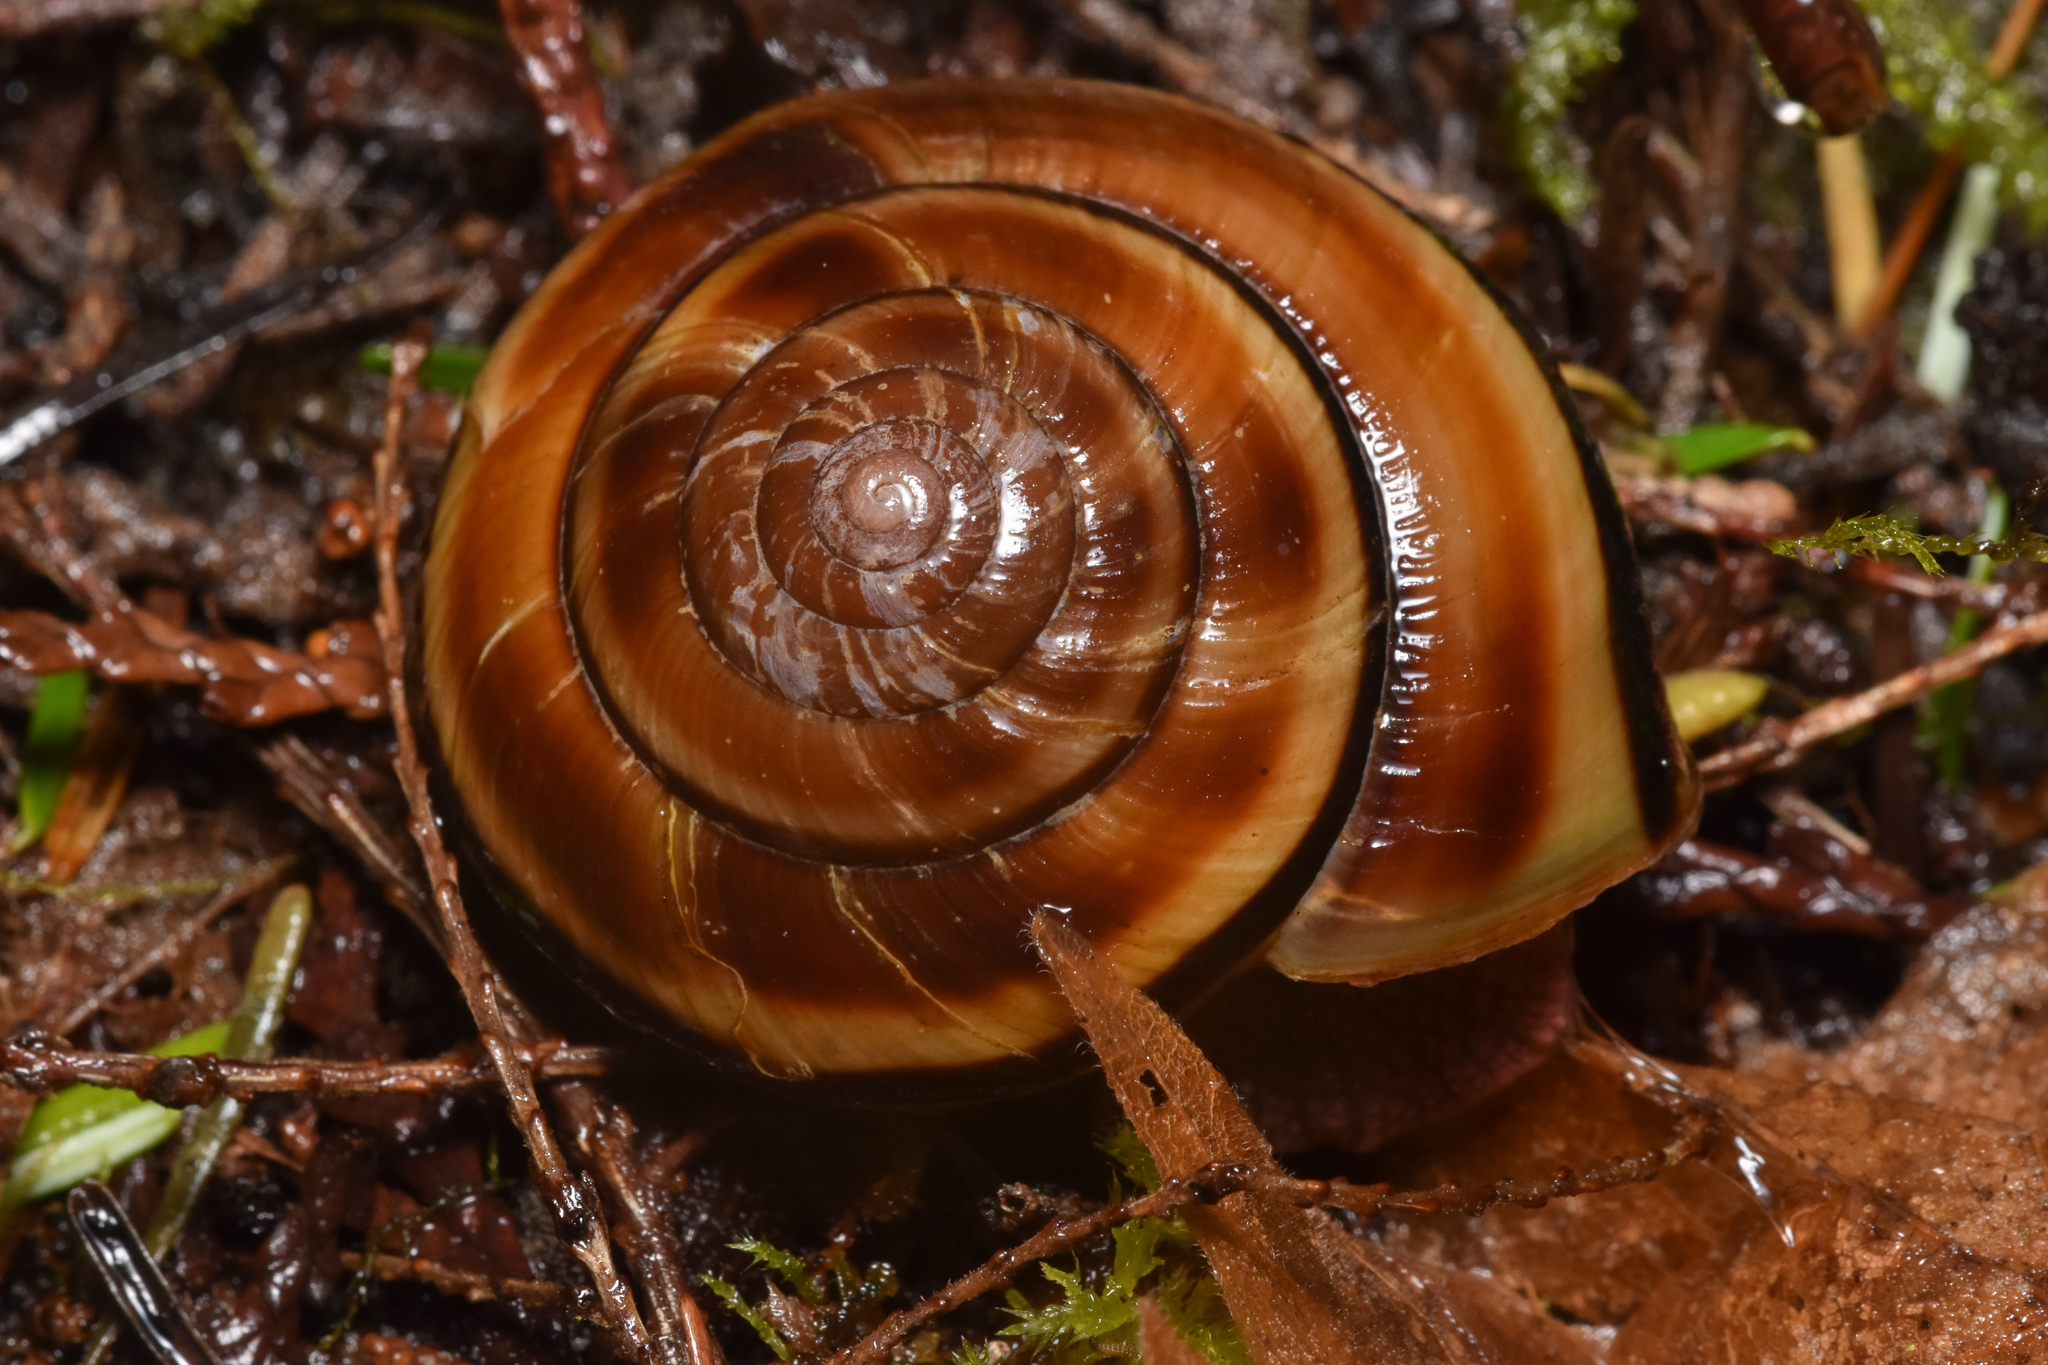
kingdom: Animalia
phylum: Mollusca
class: Gastropoda
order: Stylommatophora
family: Xanthonychidae
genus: Monadenia
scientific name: Monadenia fidelis
